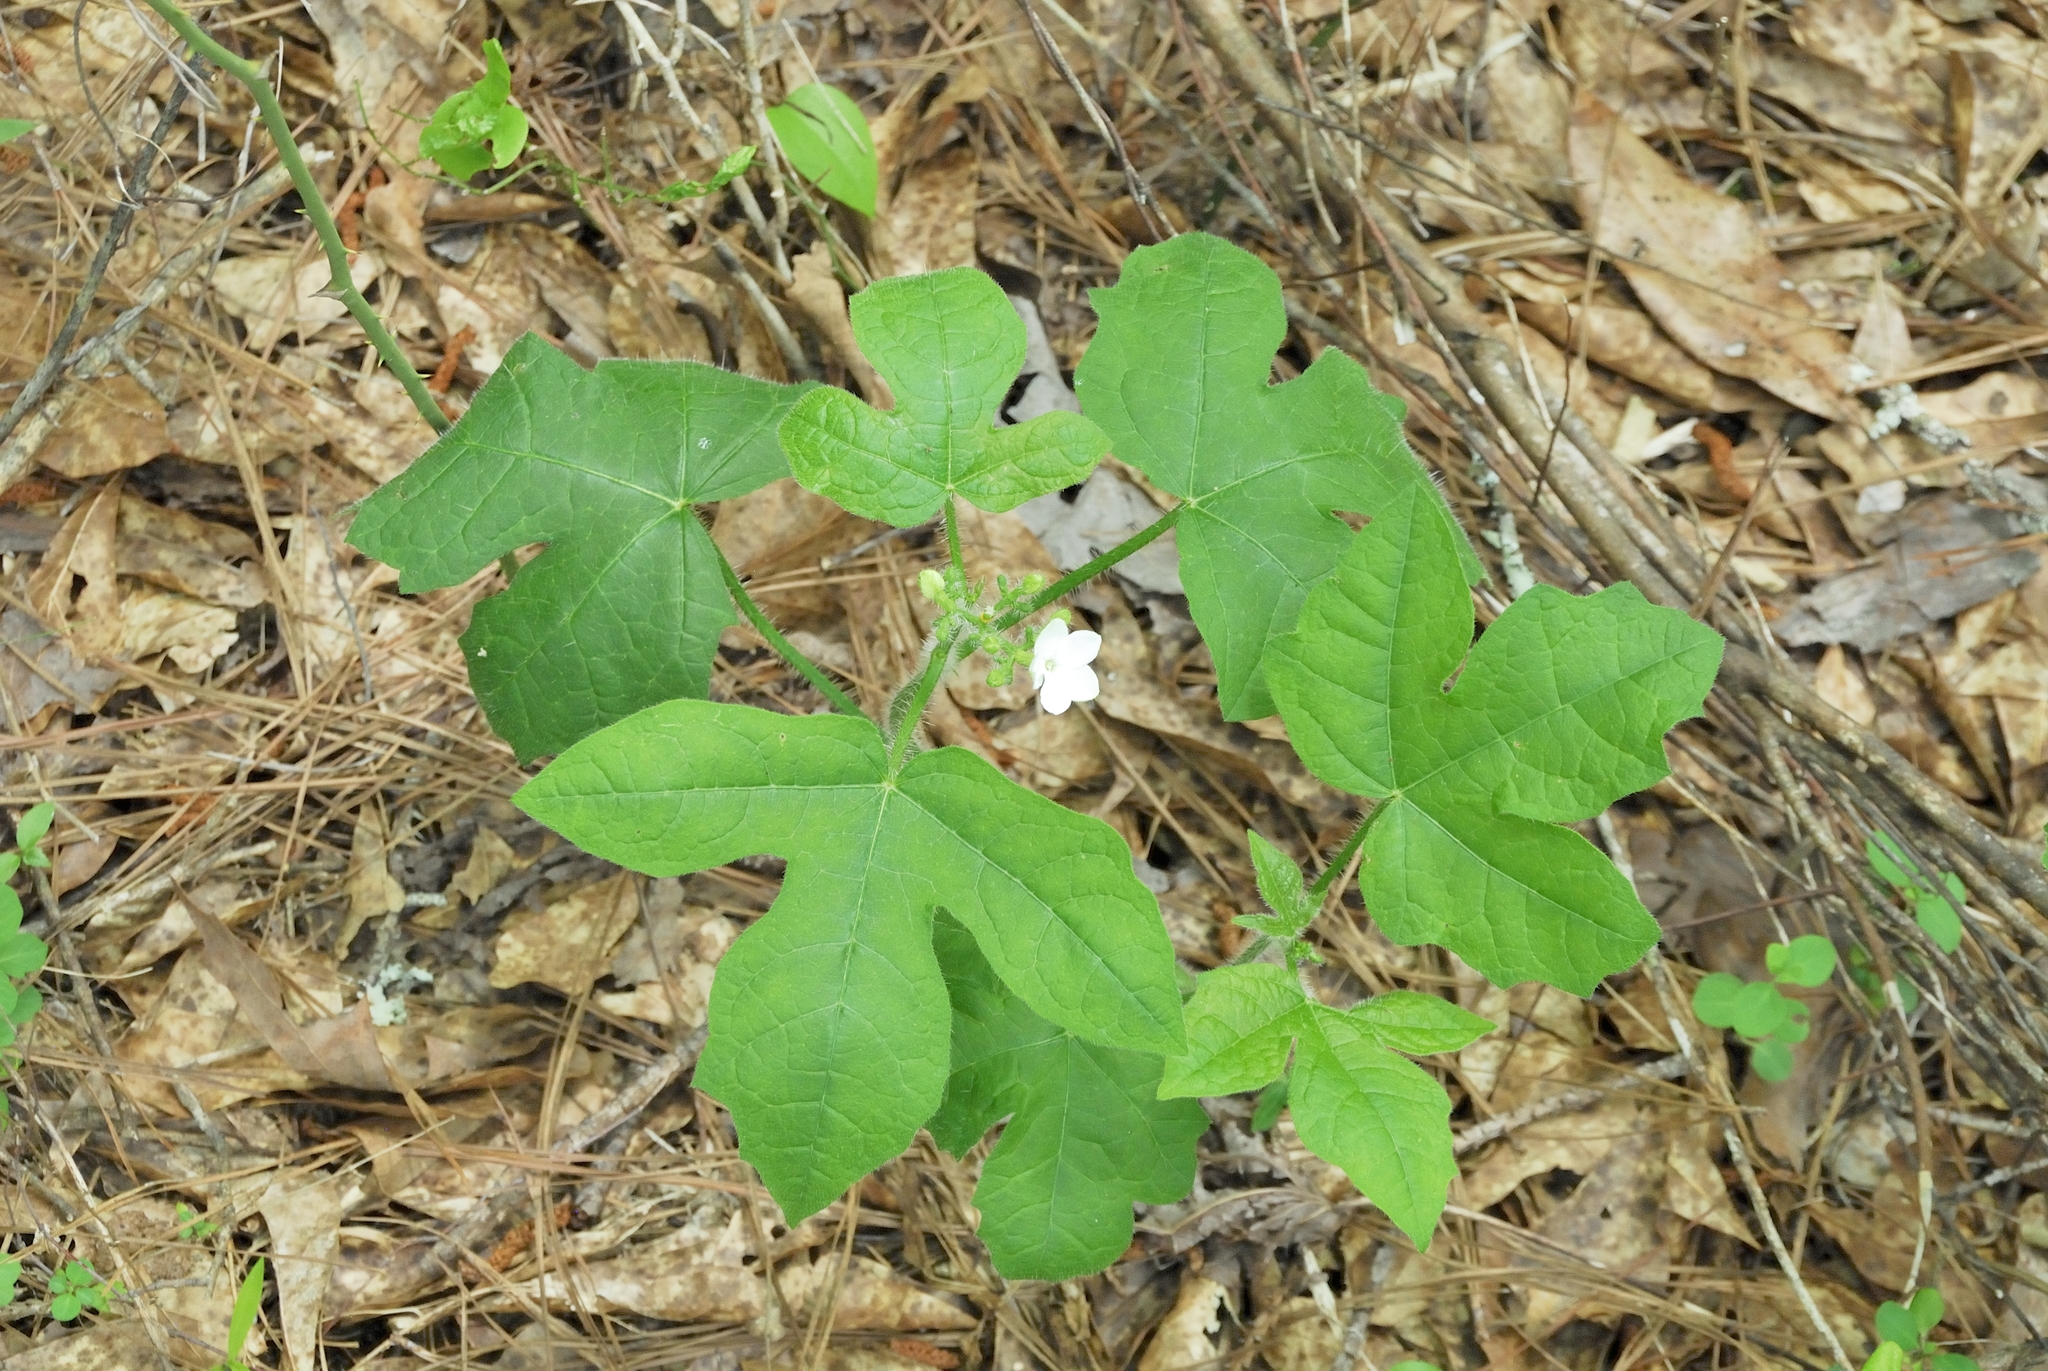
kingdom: Plantae
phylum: Tracheophyta
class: Magnoliopsida
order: Malpighiales
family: Euphorbiaceae
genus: Cnidoscolus
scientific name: Cnidoscolus stimulosus
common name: Bull-nettle
